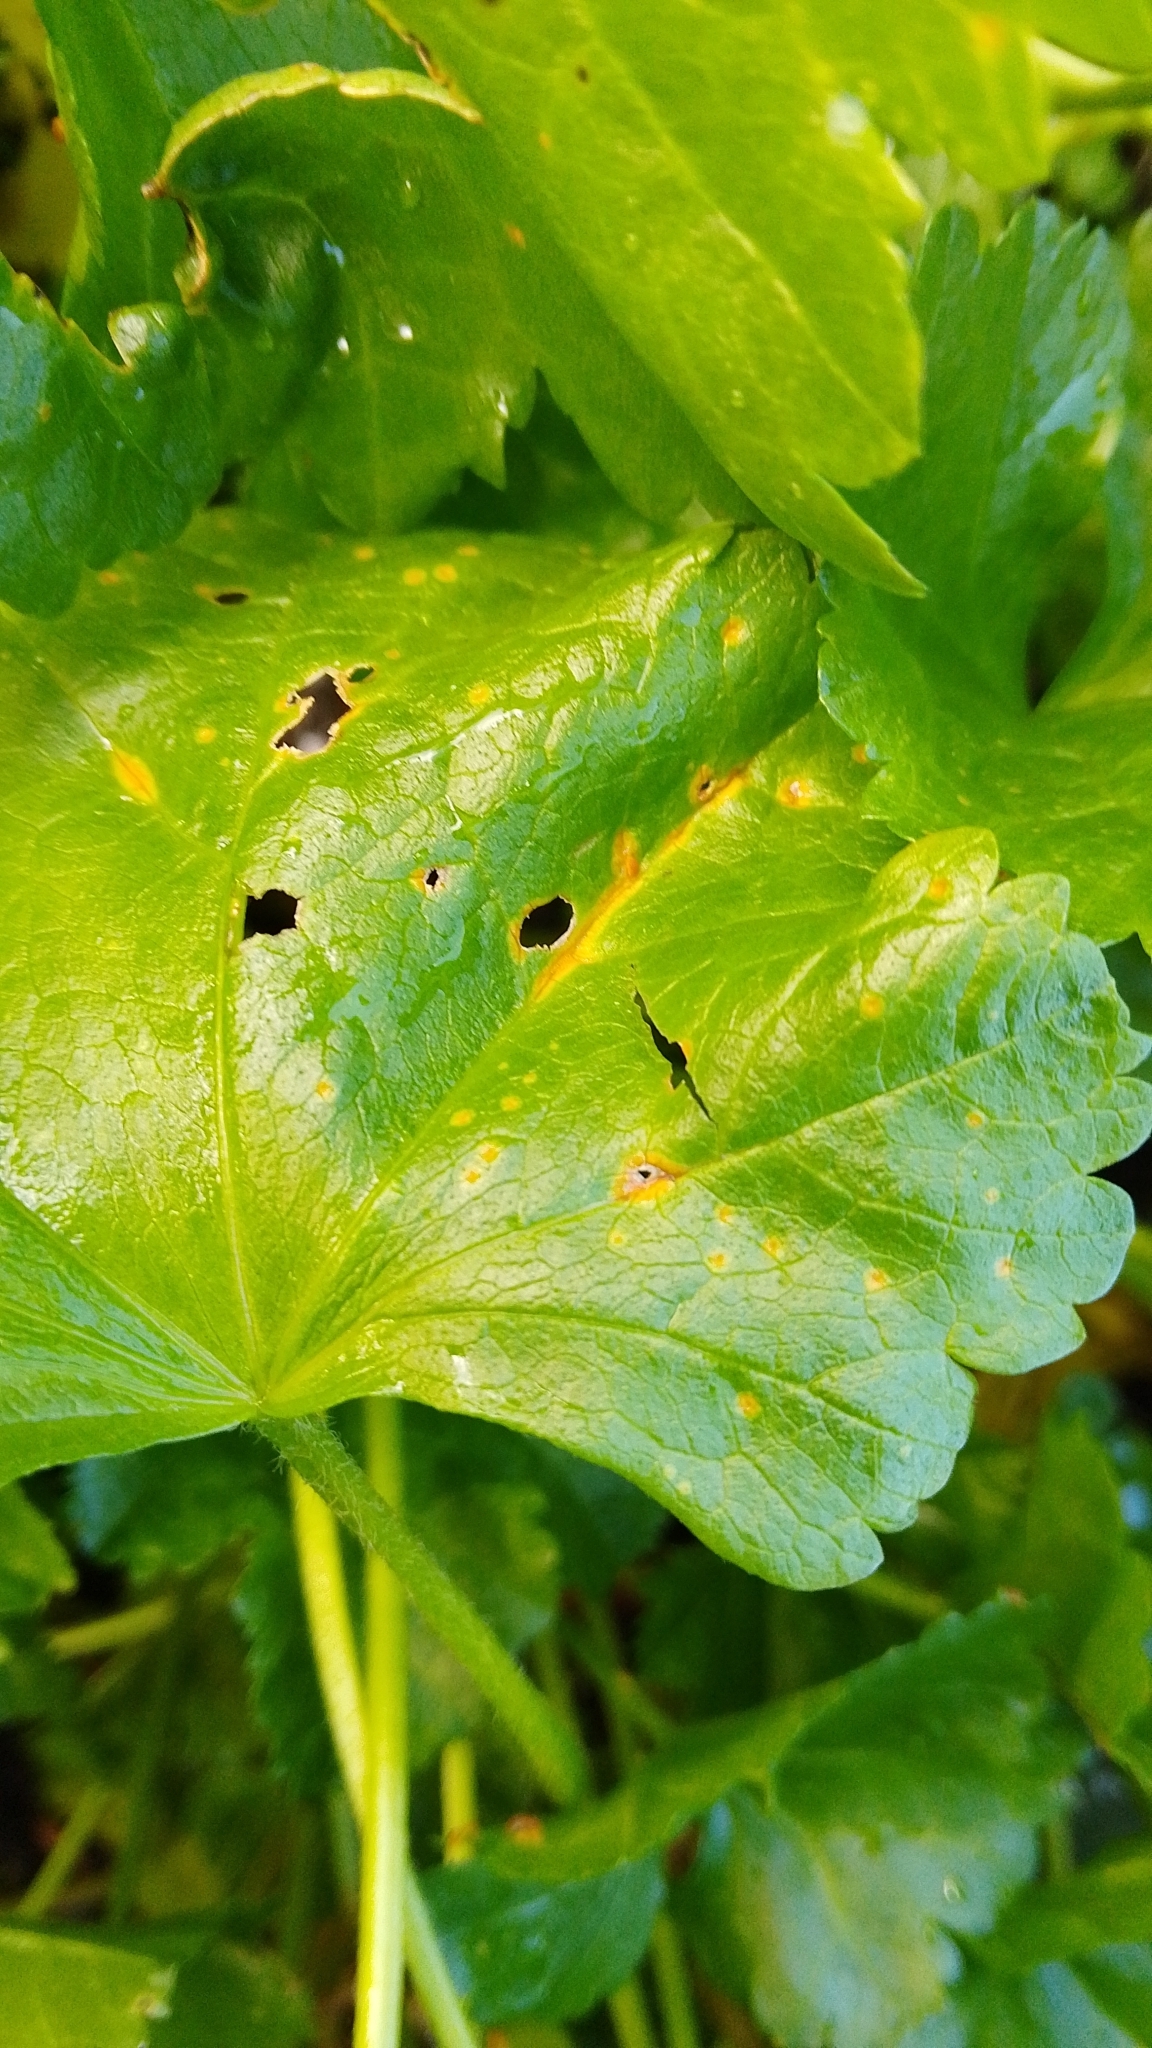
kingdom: Fungi
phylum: Basidiomycota
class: Pucciniomycetes
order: Pucciniales
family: Pucciniaceae
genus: Puccinia
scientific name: Puccinia malvacearum
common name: Hollyhock rust
